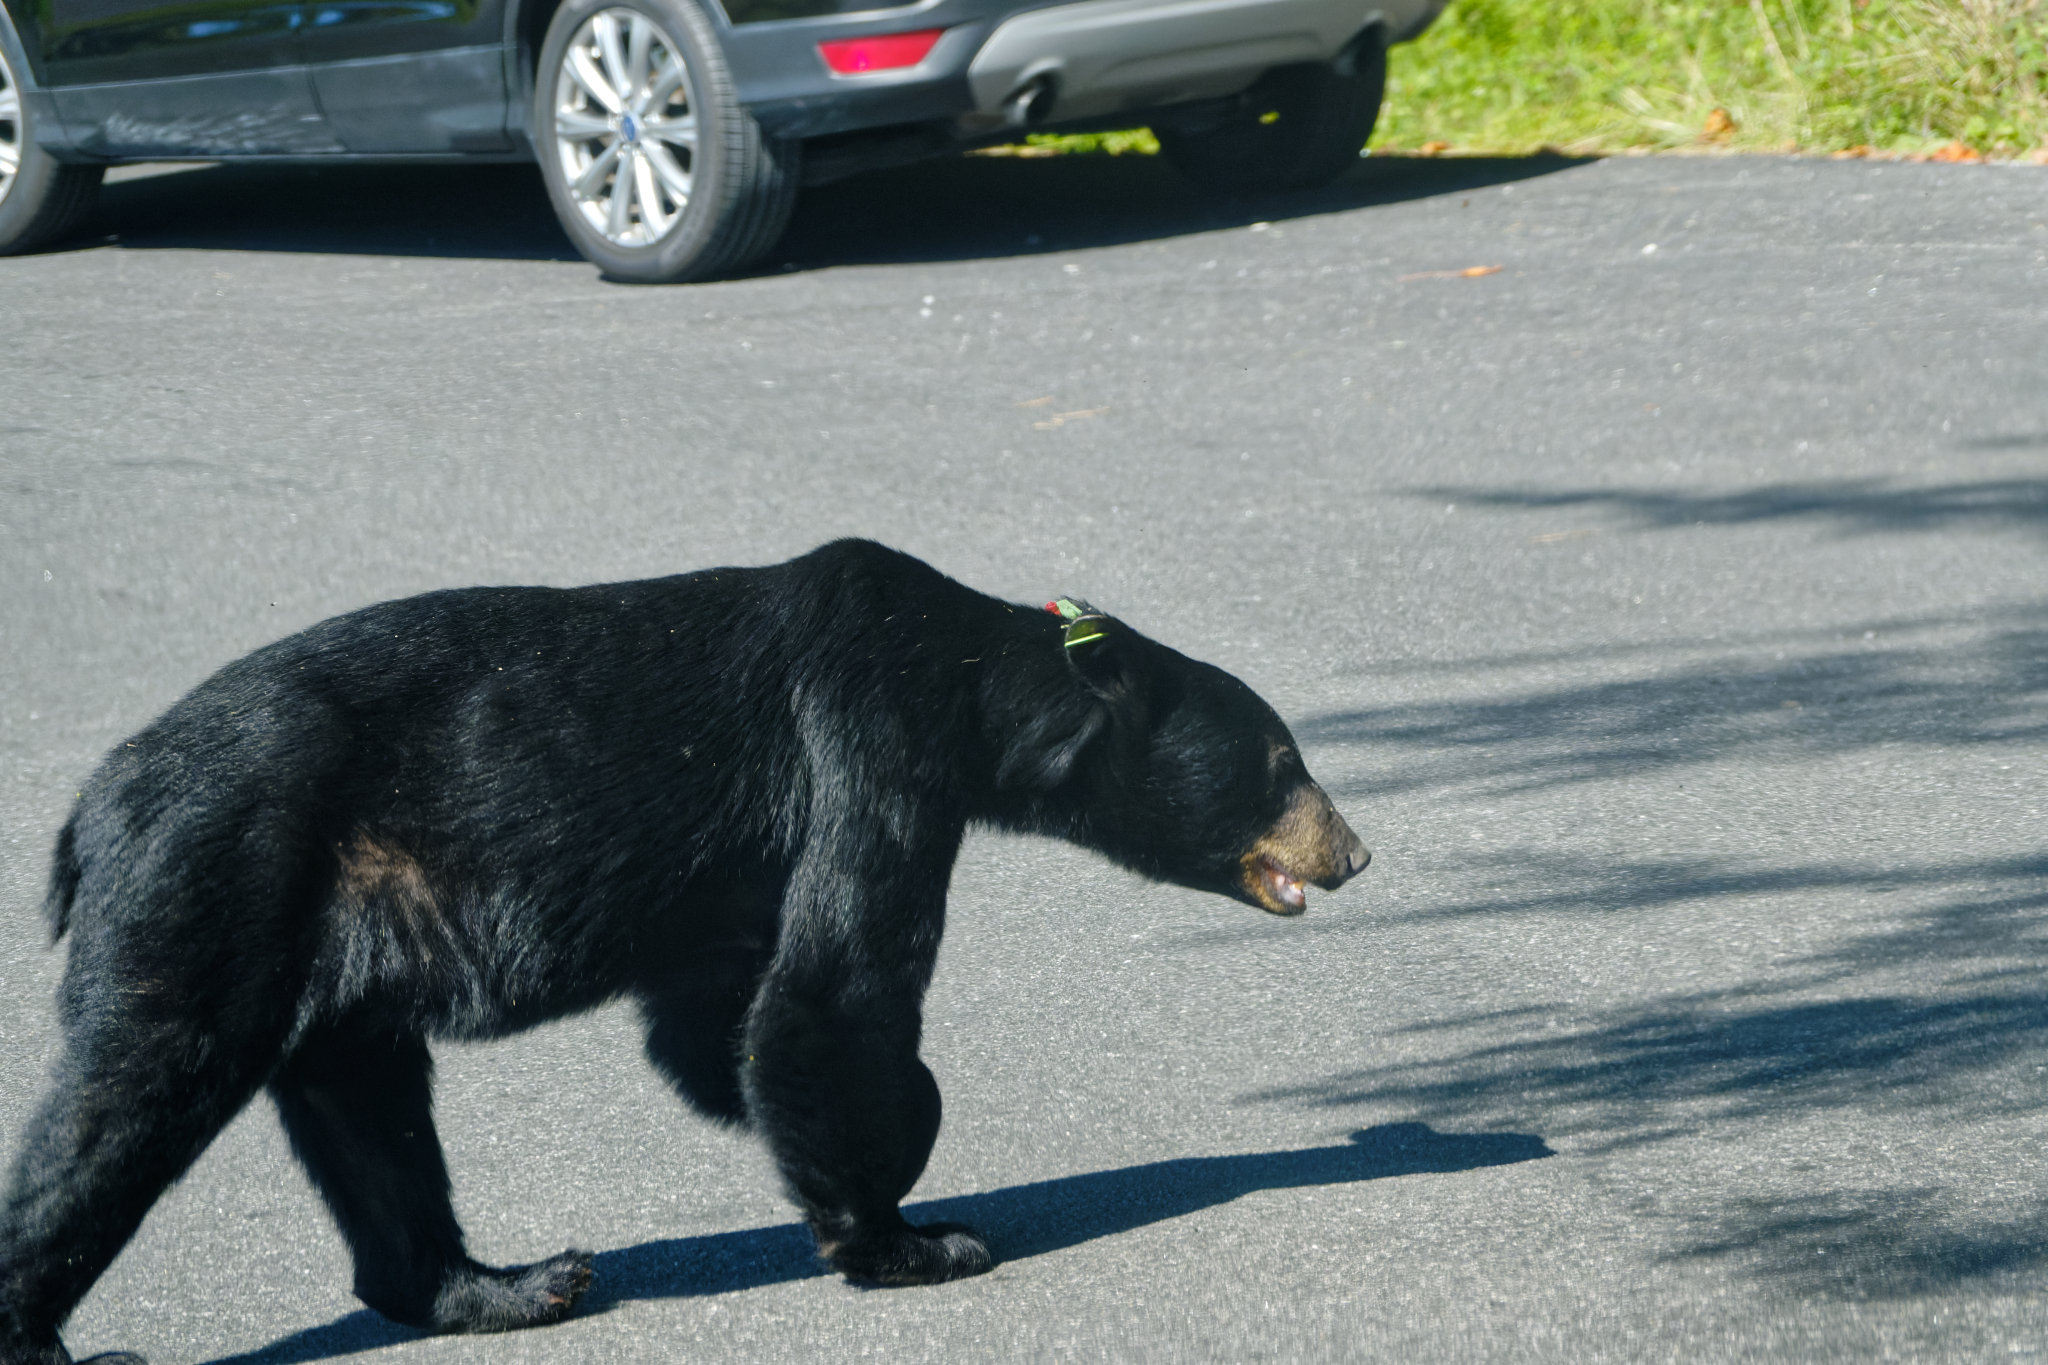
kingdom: Animalia
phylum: Chordata
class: Mammalia
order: Carnivora
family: Ursidae
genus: Ursus
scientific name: Ursus americanus
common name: American black bear
